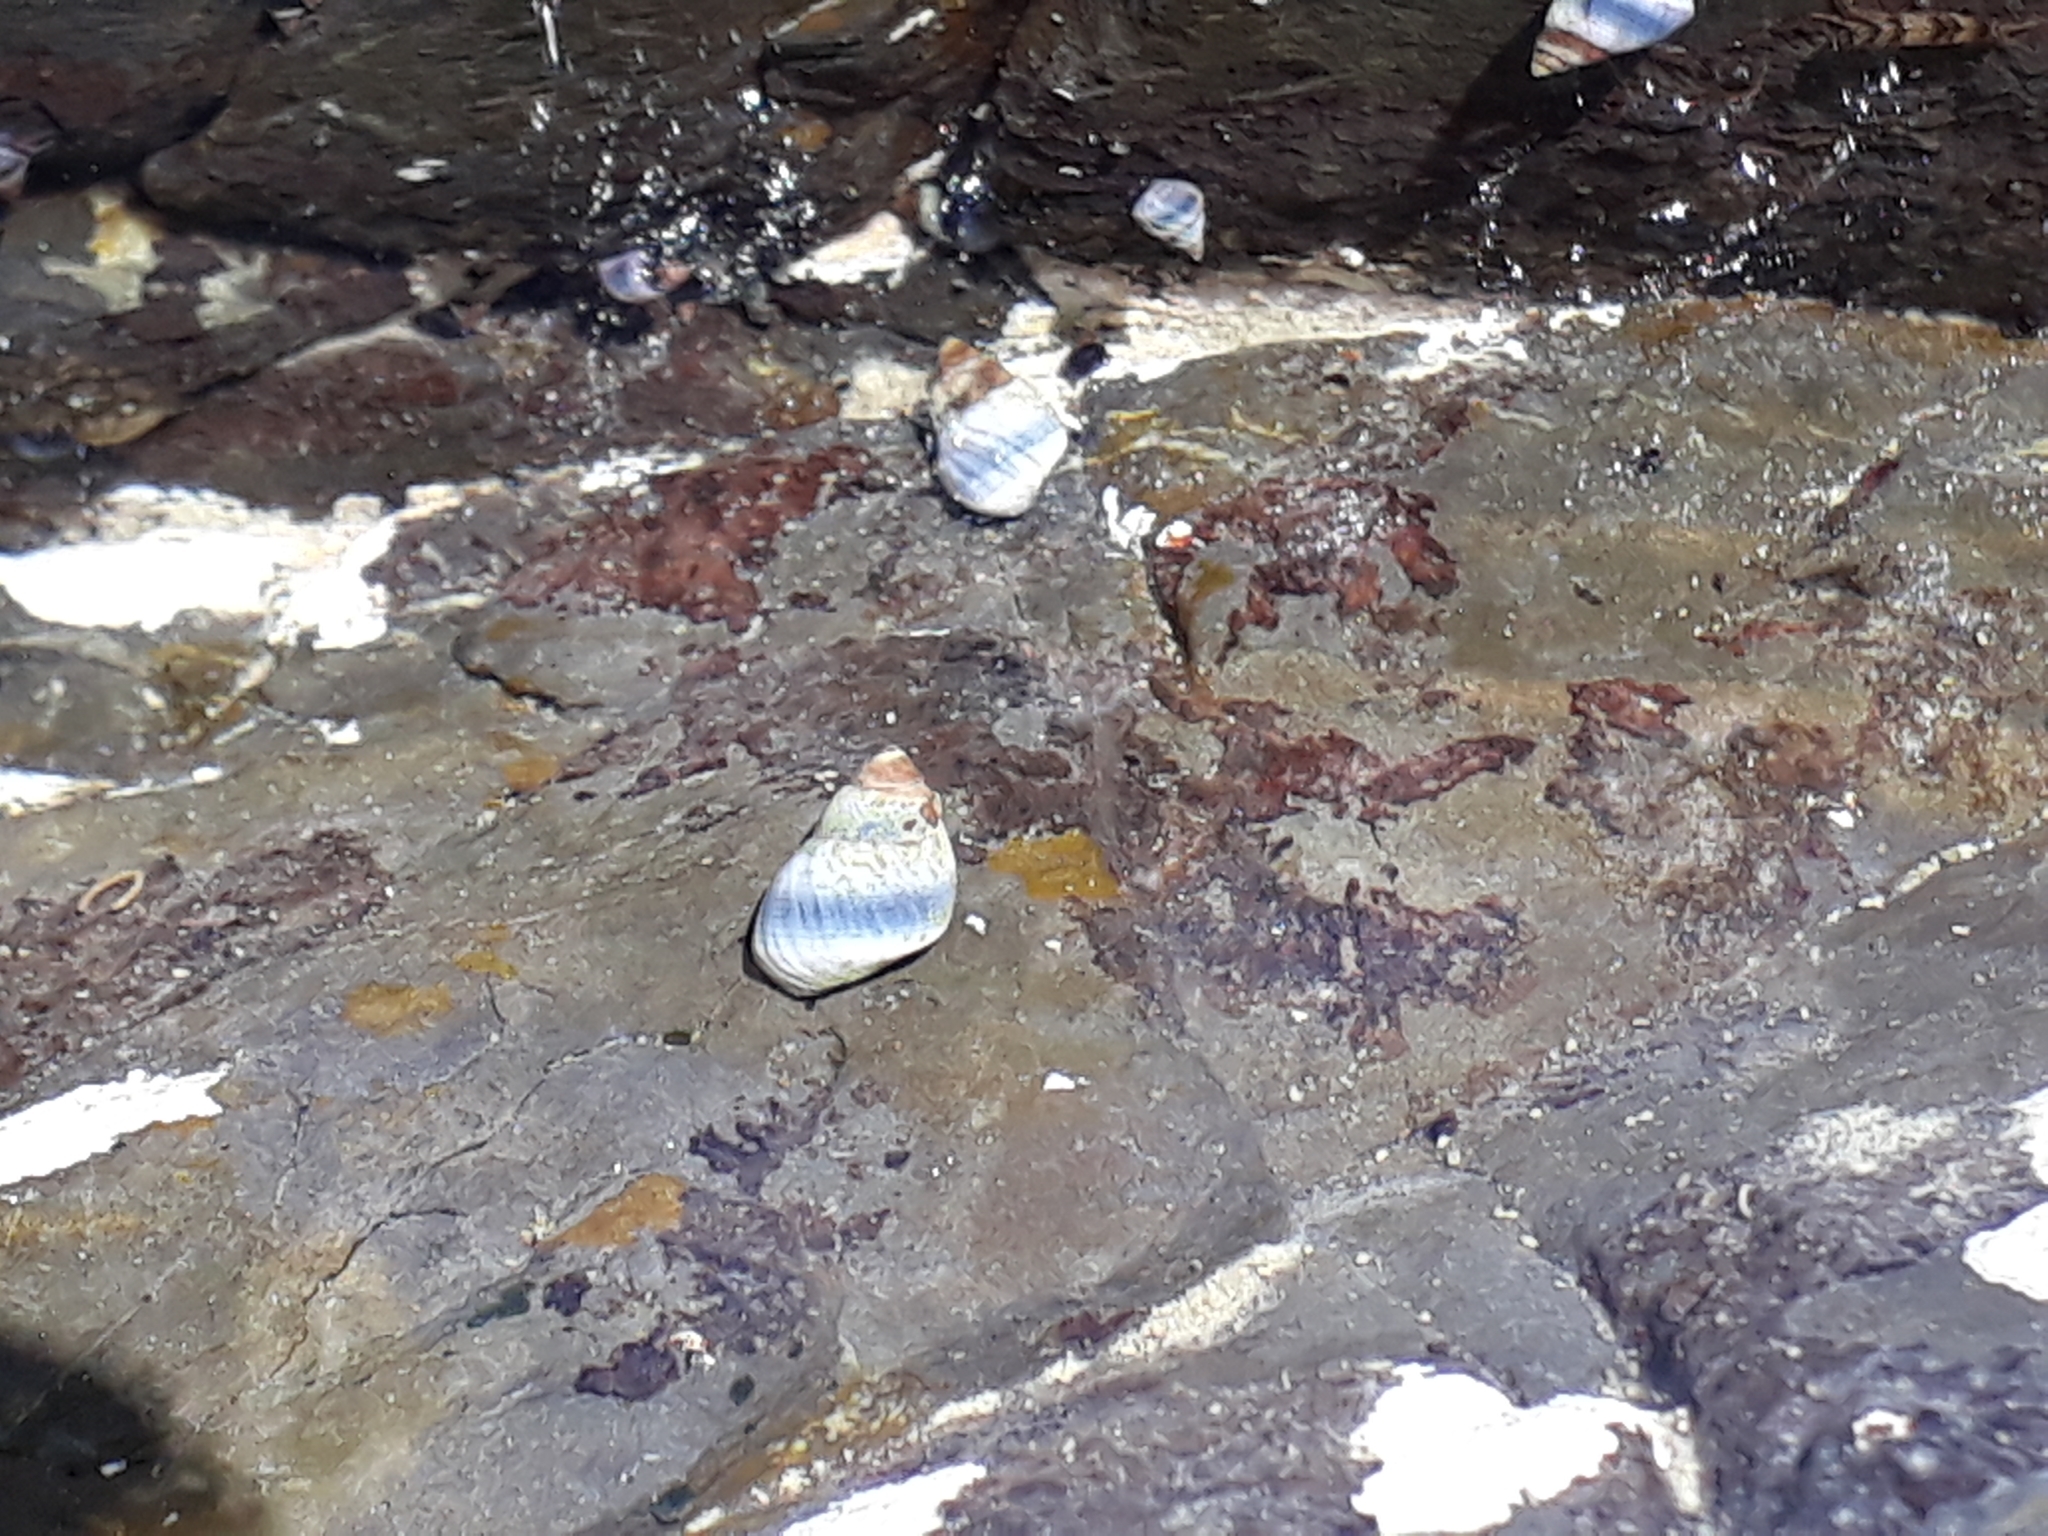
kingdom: Animalia
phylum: Mollusca
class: Gastropoda
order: Littorinimorpha
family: Littorinidae
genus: Austrolittorina
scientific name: Austrolittorina antipodum
